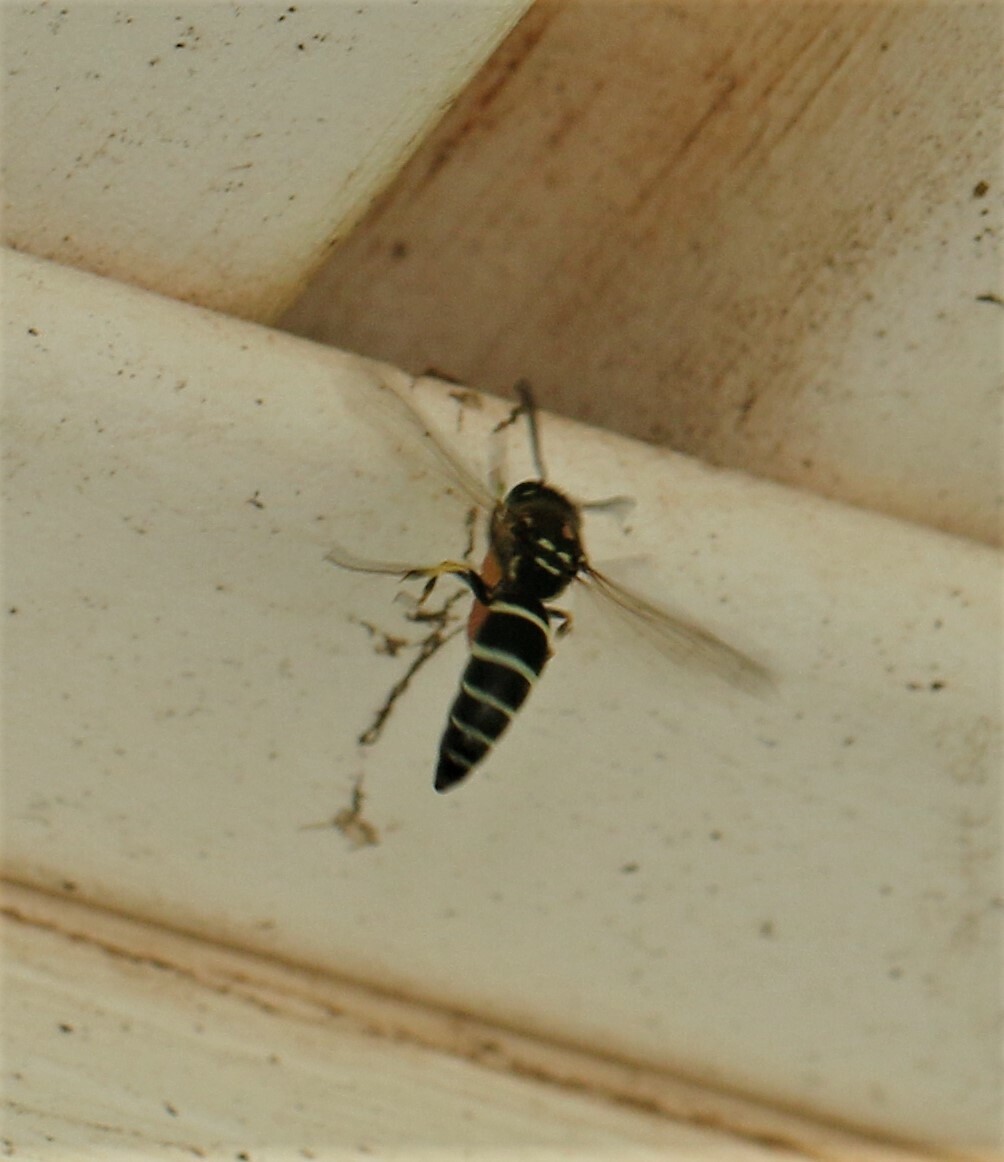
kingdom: Animalia
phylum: Arthropoda
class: Insecta
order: Hymenoptera
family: Vespidae
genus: Ancistrocerus
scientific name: Ancistrocerus catskill
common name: Vespid wasp
